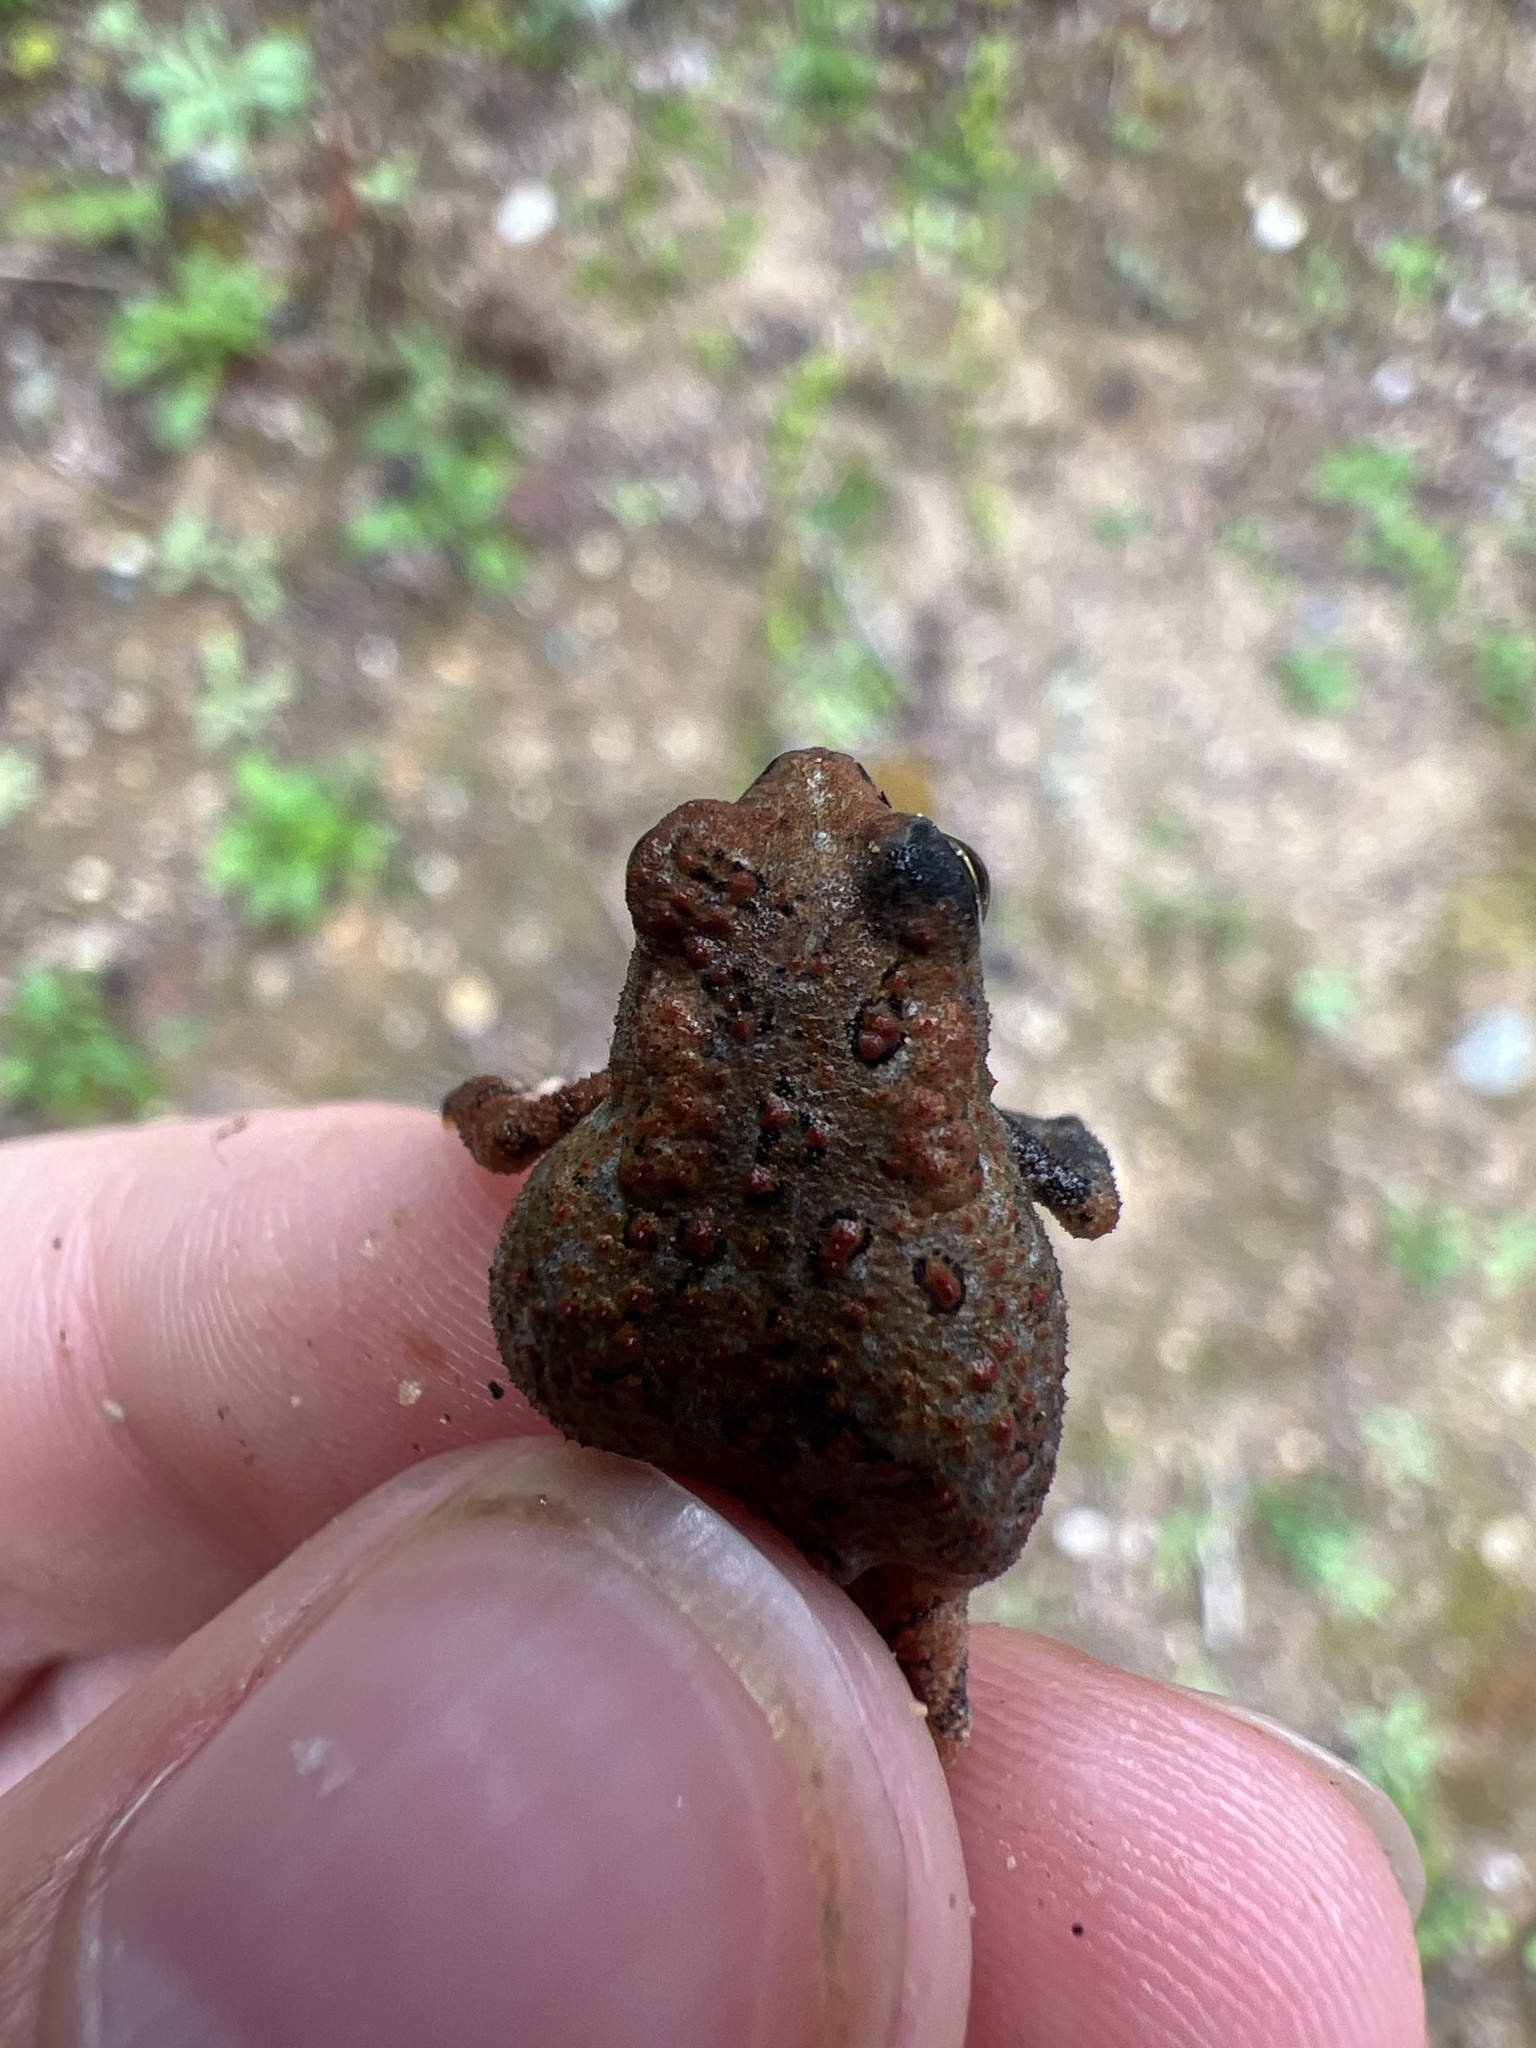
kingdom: Animalia
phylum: Chordata
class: Amphibia
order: Anura
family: Bufonidae
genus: Anaxyrus
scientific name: Anaxyrus americanus
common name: American toad
